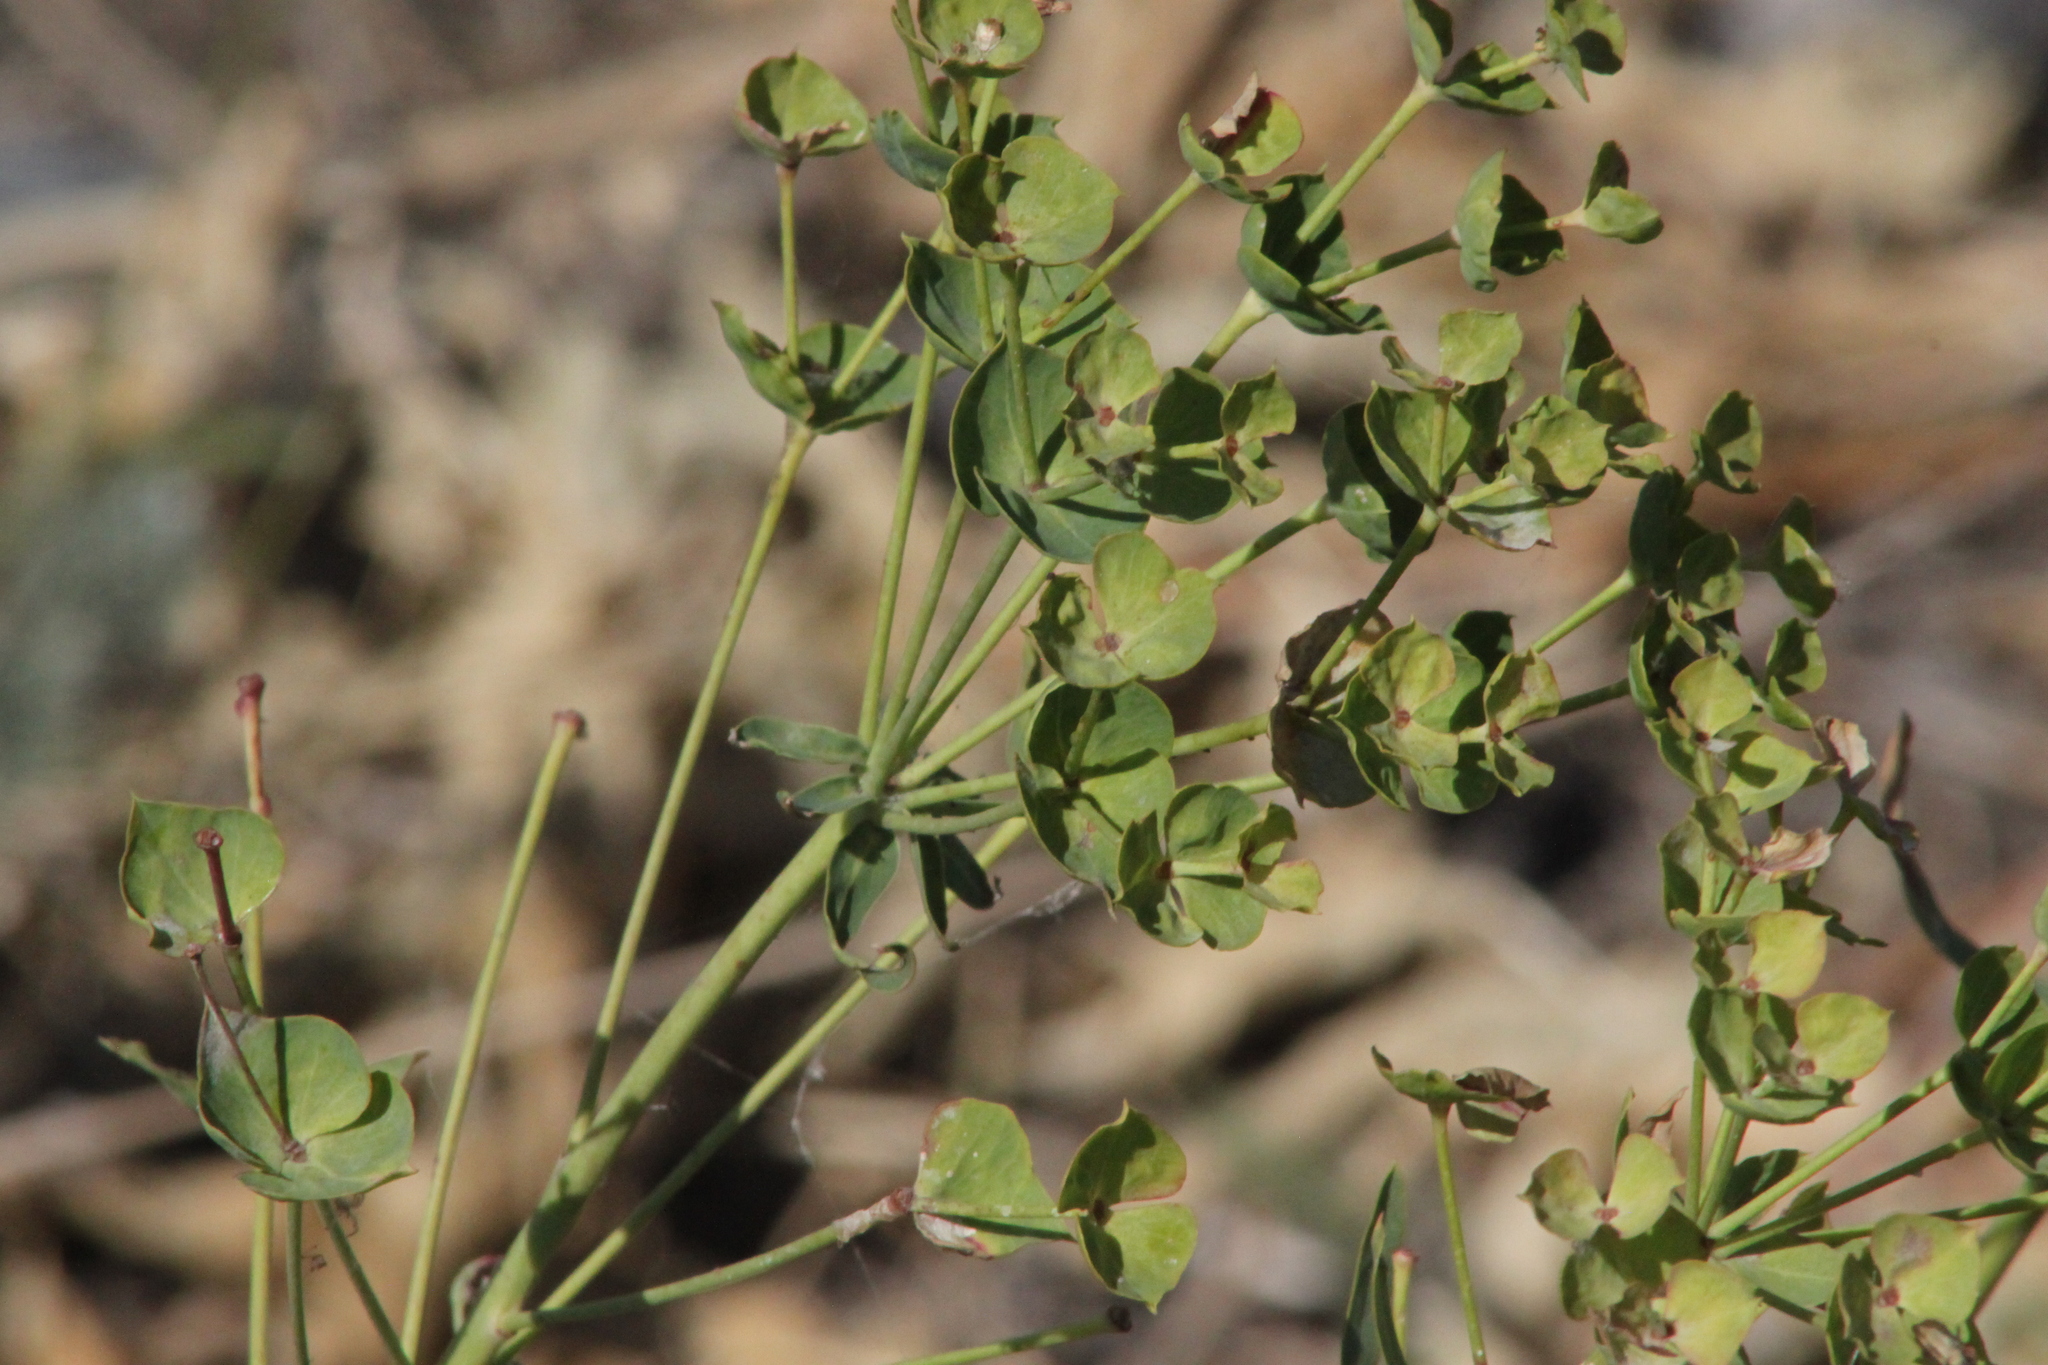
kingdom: Plantae
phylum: Tracheophyta
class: Magnoliopsida
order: Malpighiales
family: Euphorbiaceae
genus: Euphorbia
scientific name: Euphorbia virgata
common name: Leafy spurge
